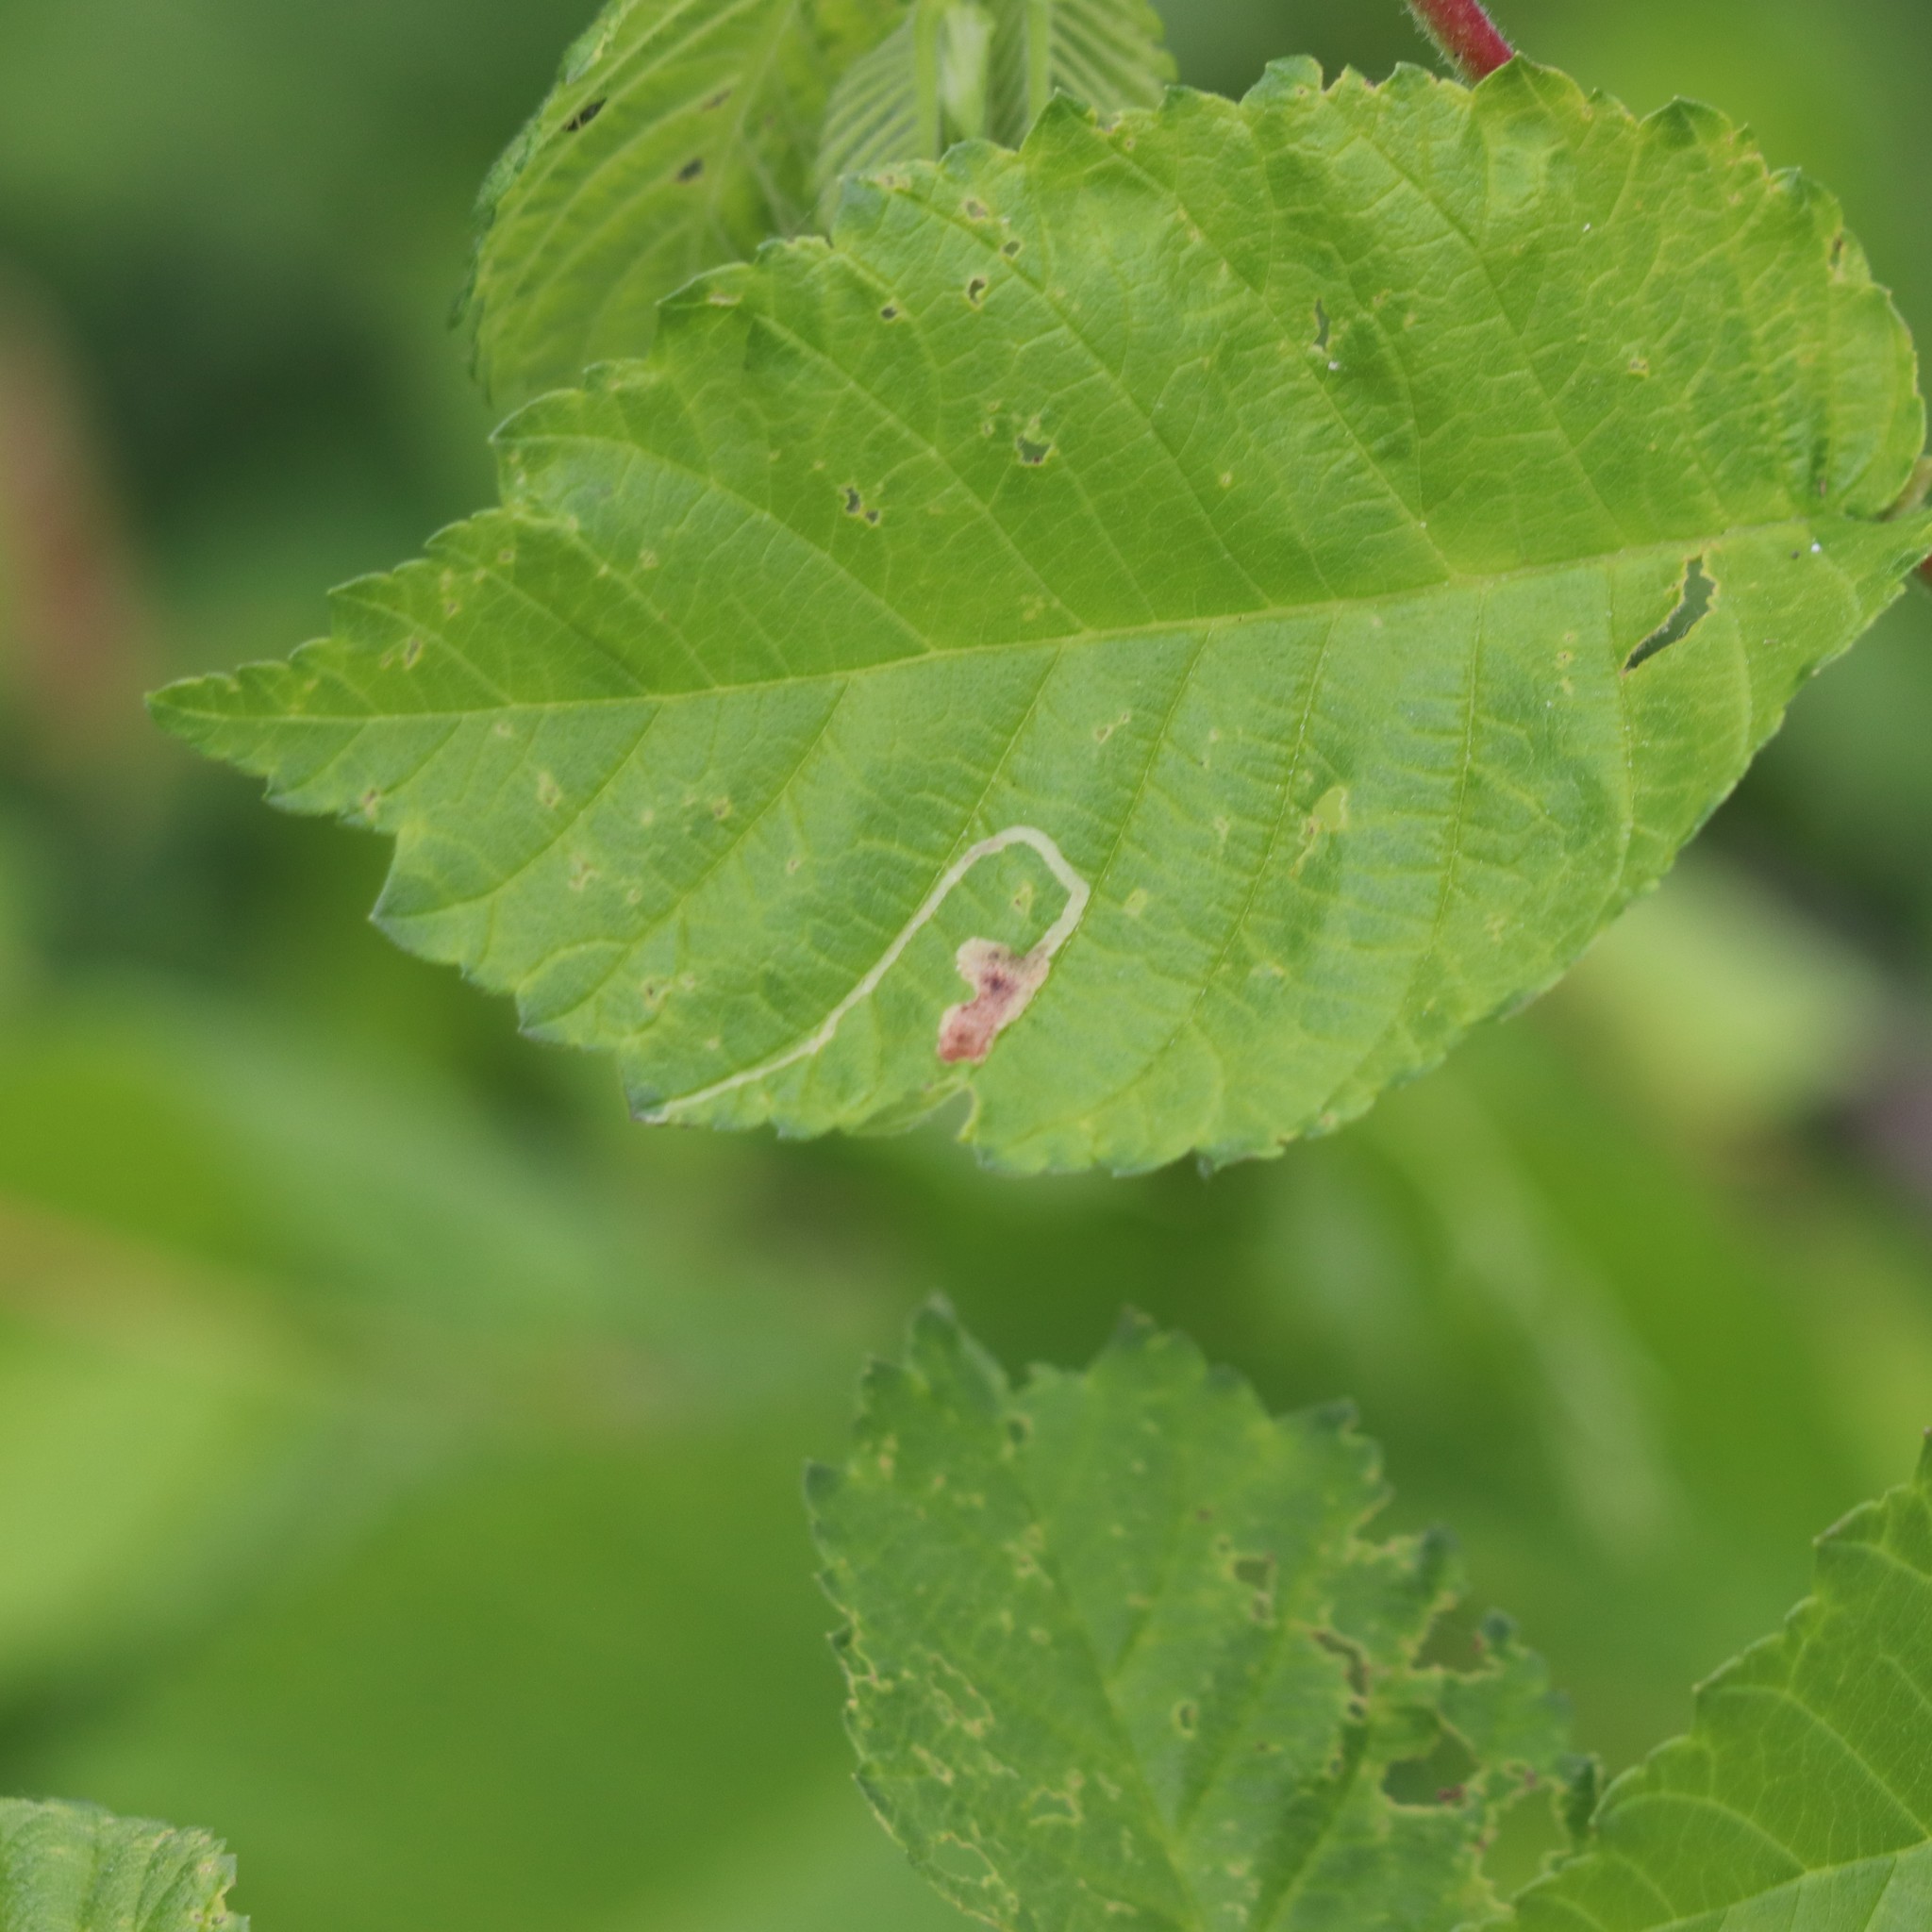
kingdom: Animalia
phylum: Arthropoda
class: Insecta
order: Diptera
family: Agromyzidae
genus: Agromyza
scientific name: Agromyza aristata
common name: Elm agromyzid leafminer
